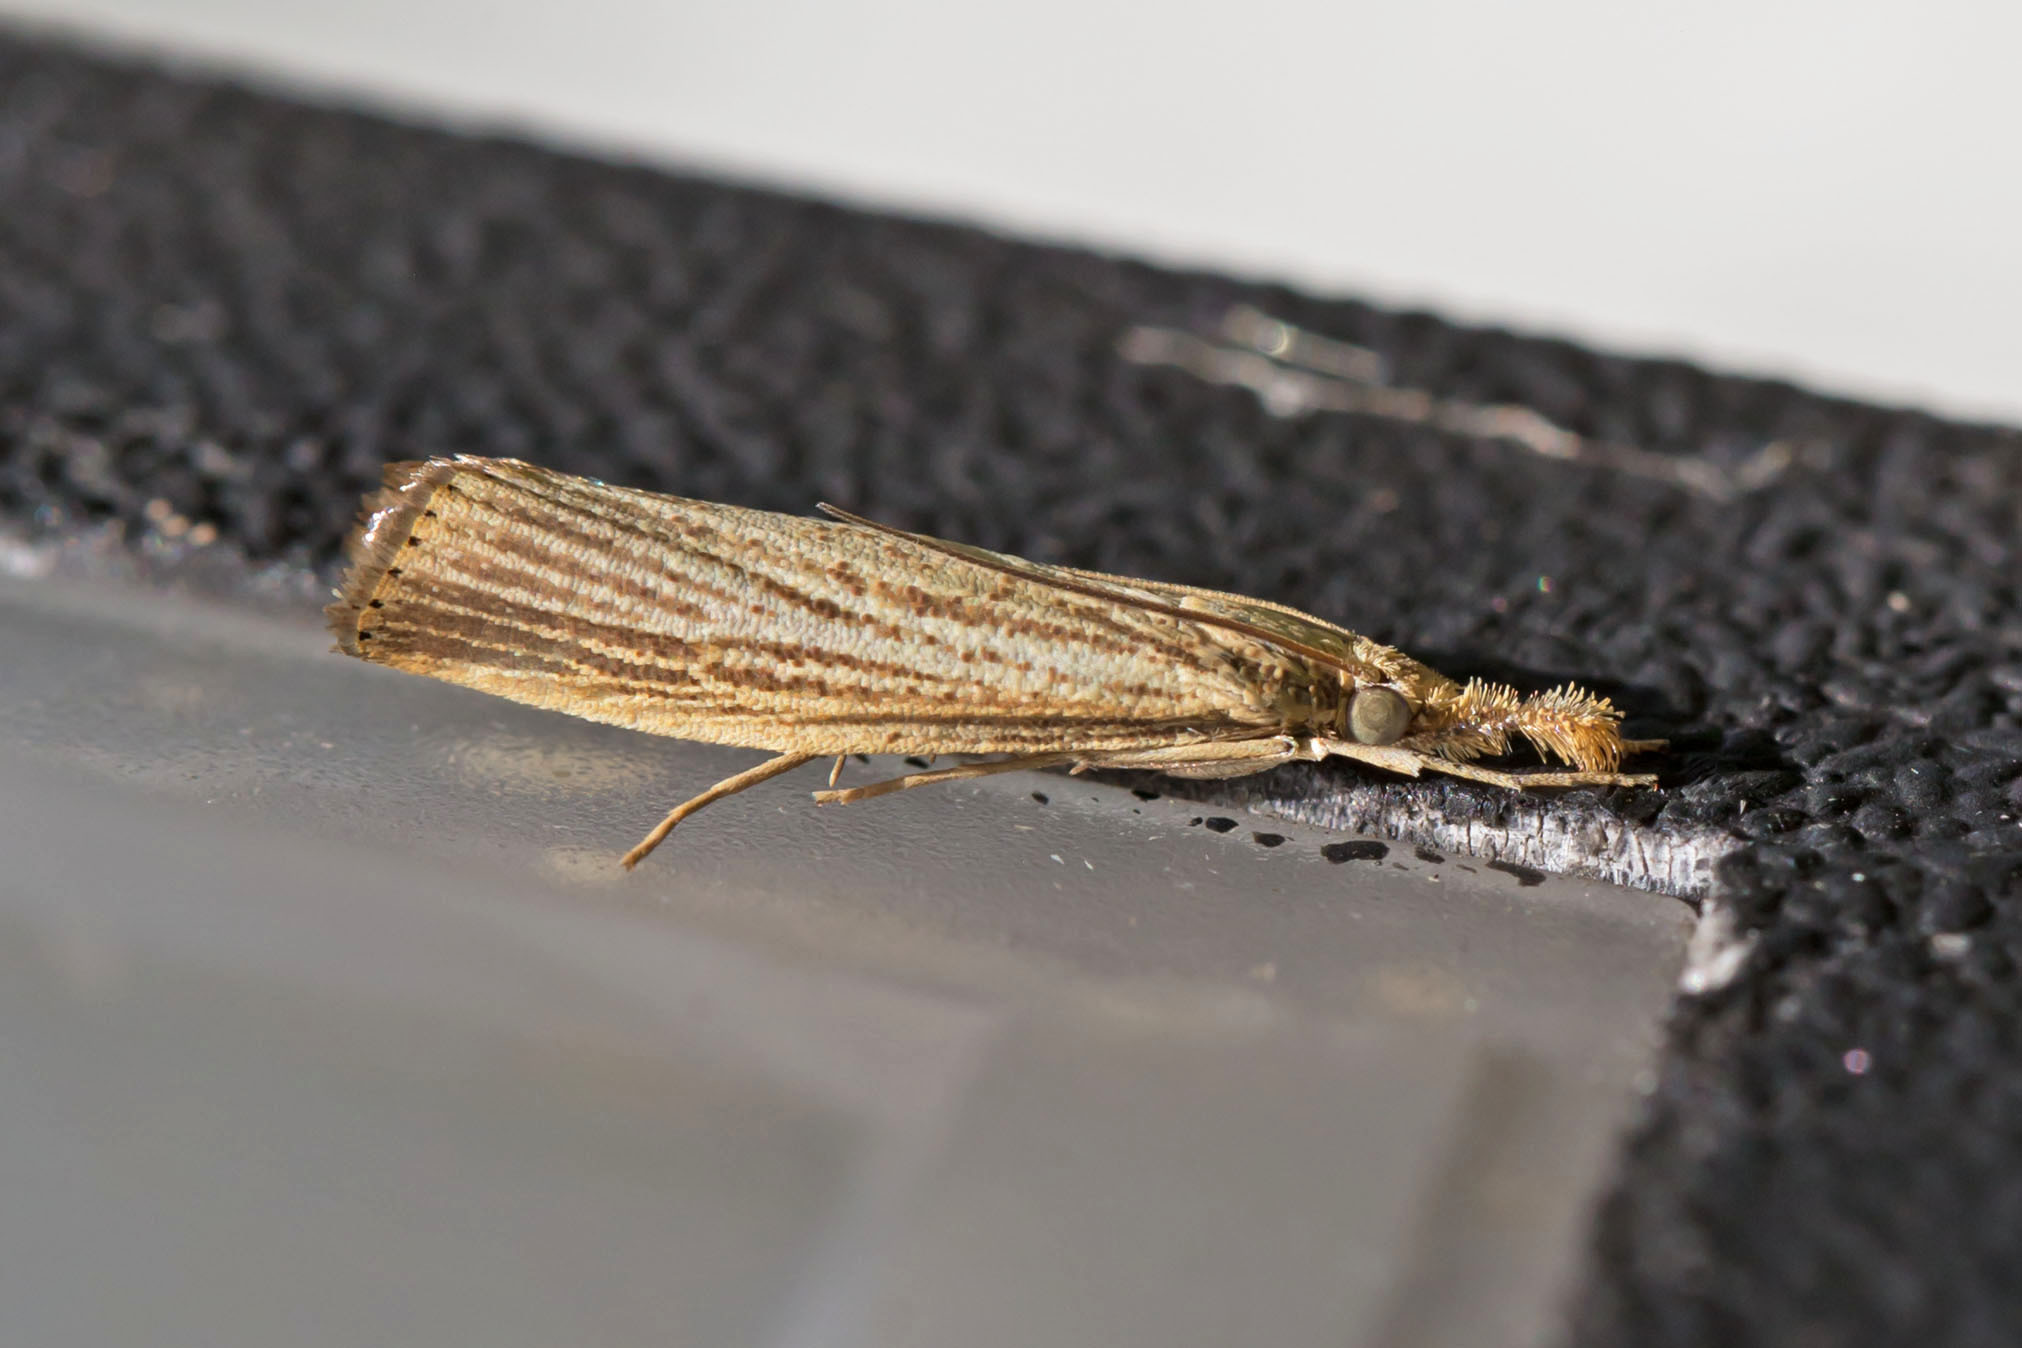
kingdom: Animalia
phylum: Arthropoda
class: Insecta
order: Lepidoptera
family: Crambidae
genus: Agriphila
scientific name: Agriphila vulgivagellus
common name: Vagabond crambus moth
